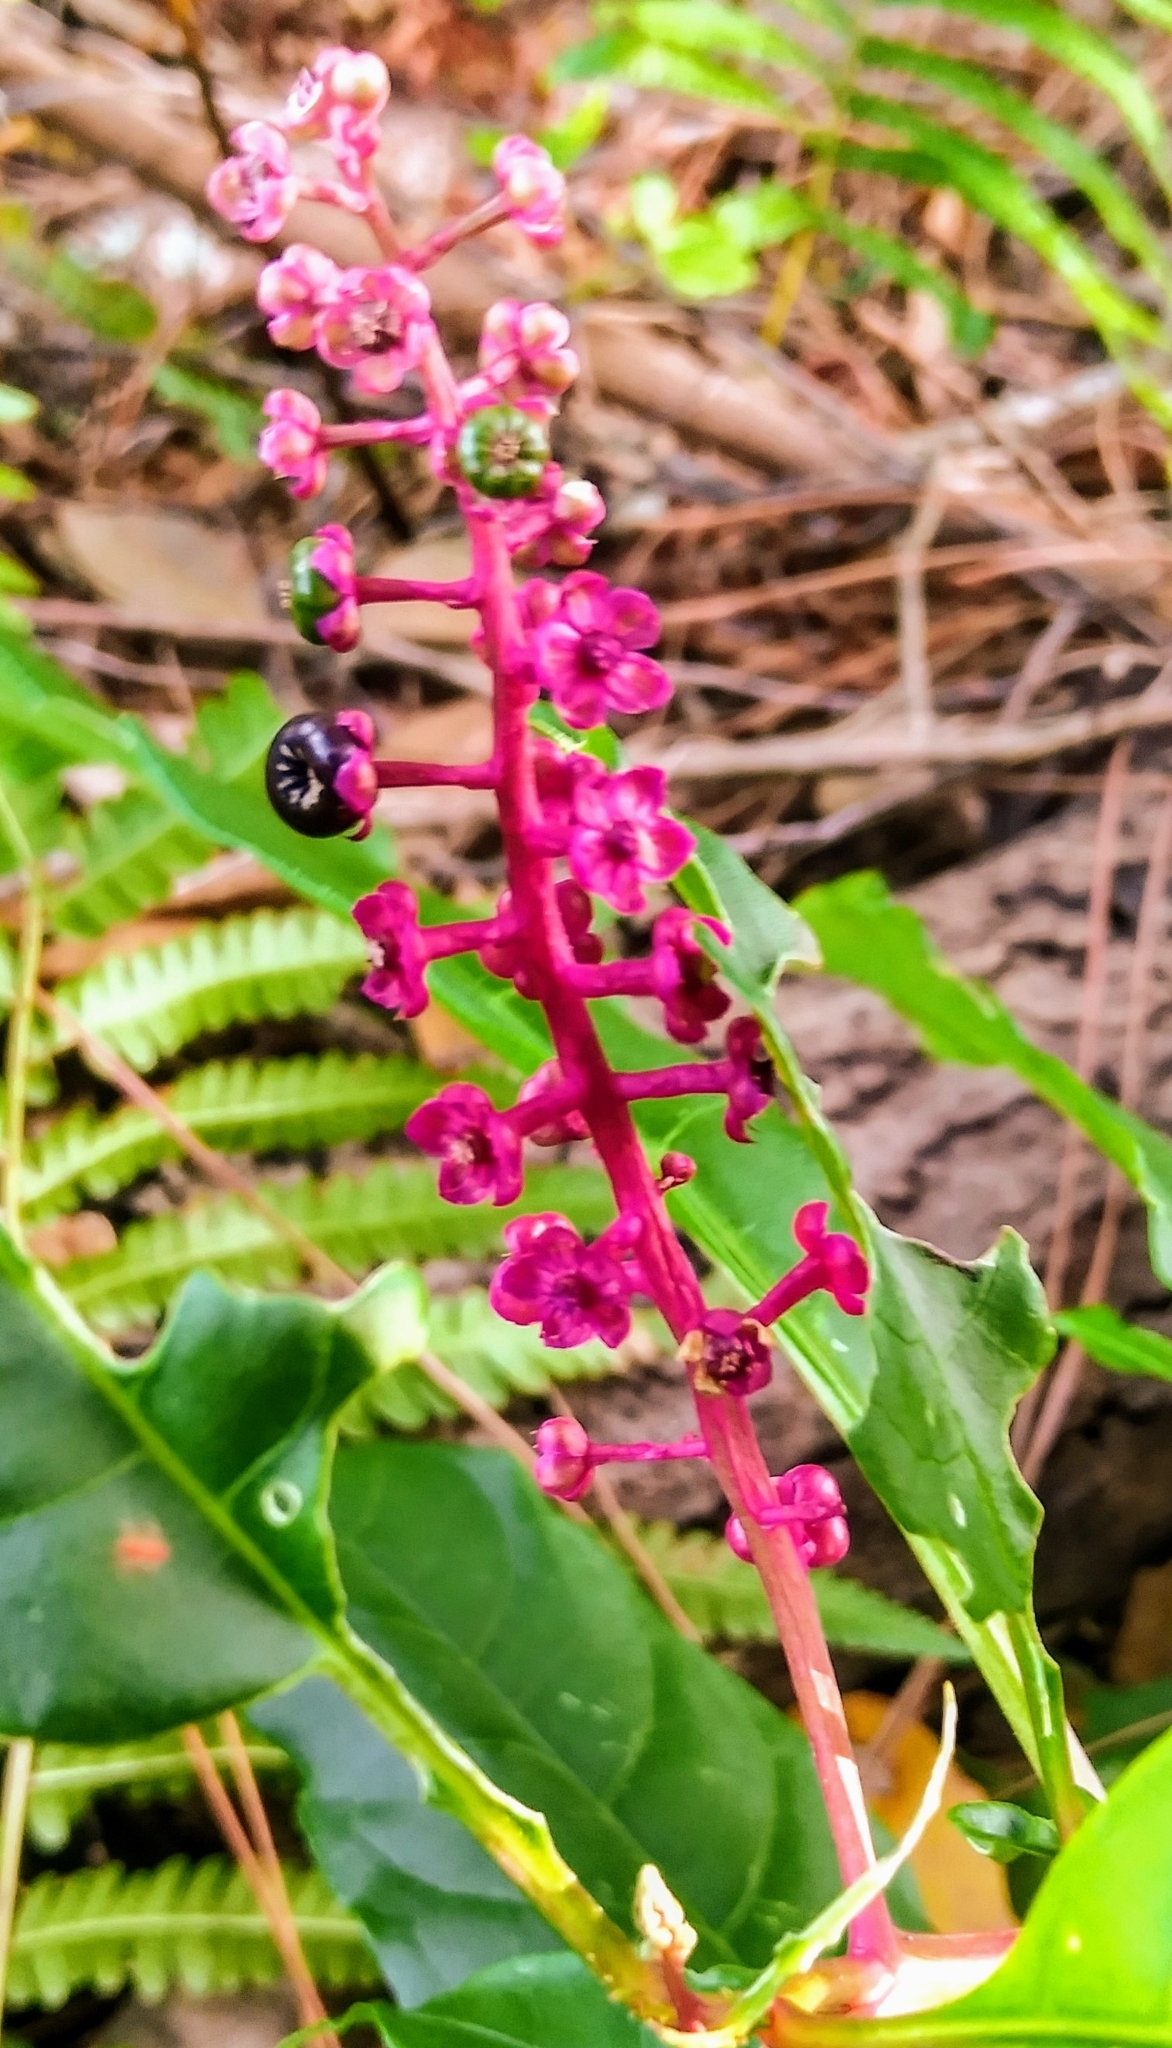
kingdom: Plantae
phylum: Tracheophyta
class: Magnoliopsida
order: Caryophyllales
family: Phytolaccaceae
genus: Phytolacca
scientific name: Phytolacca americana
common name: American pokeweed
